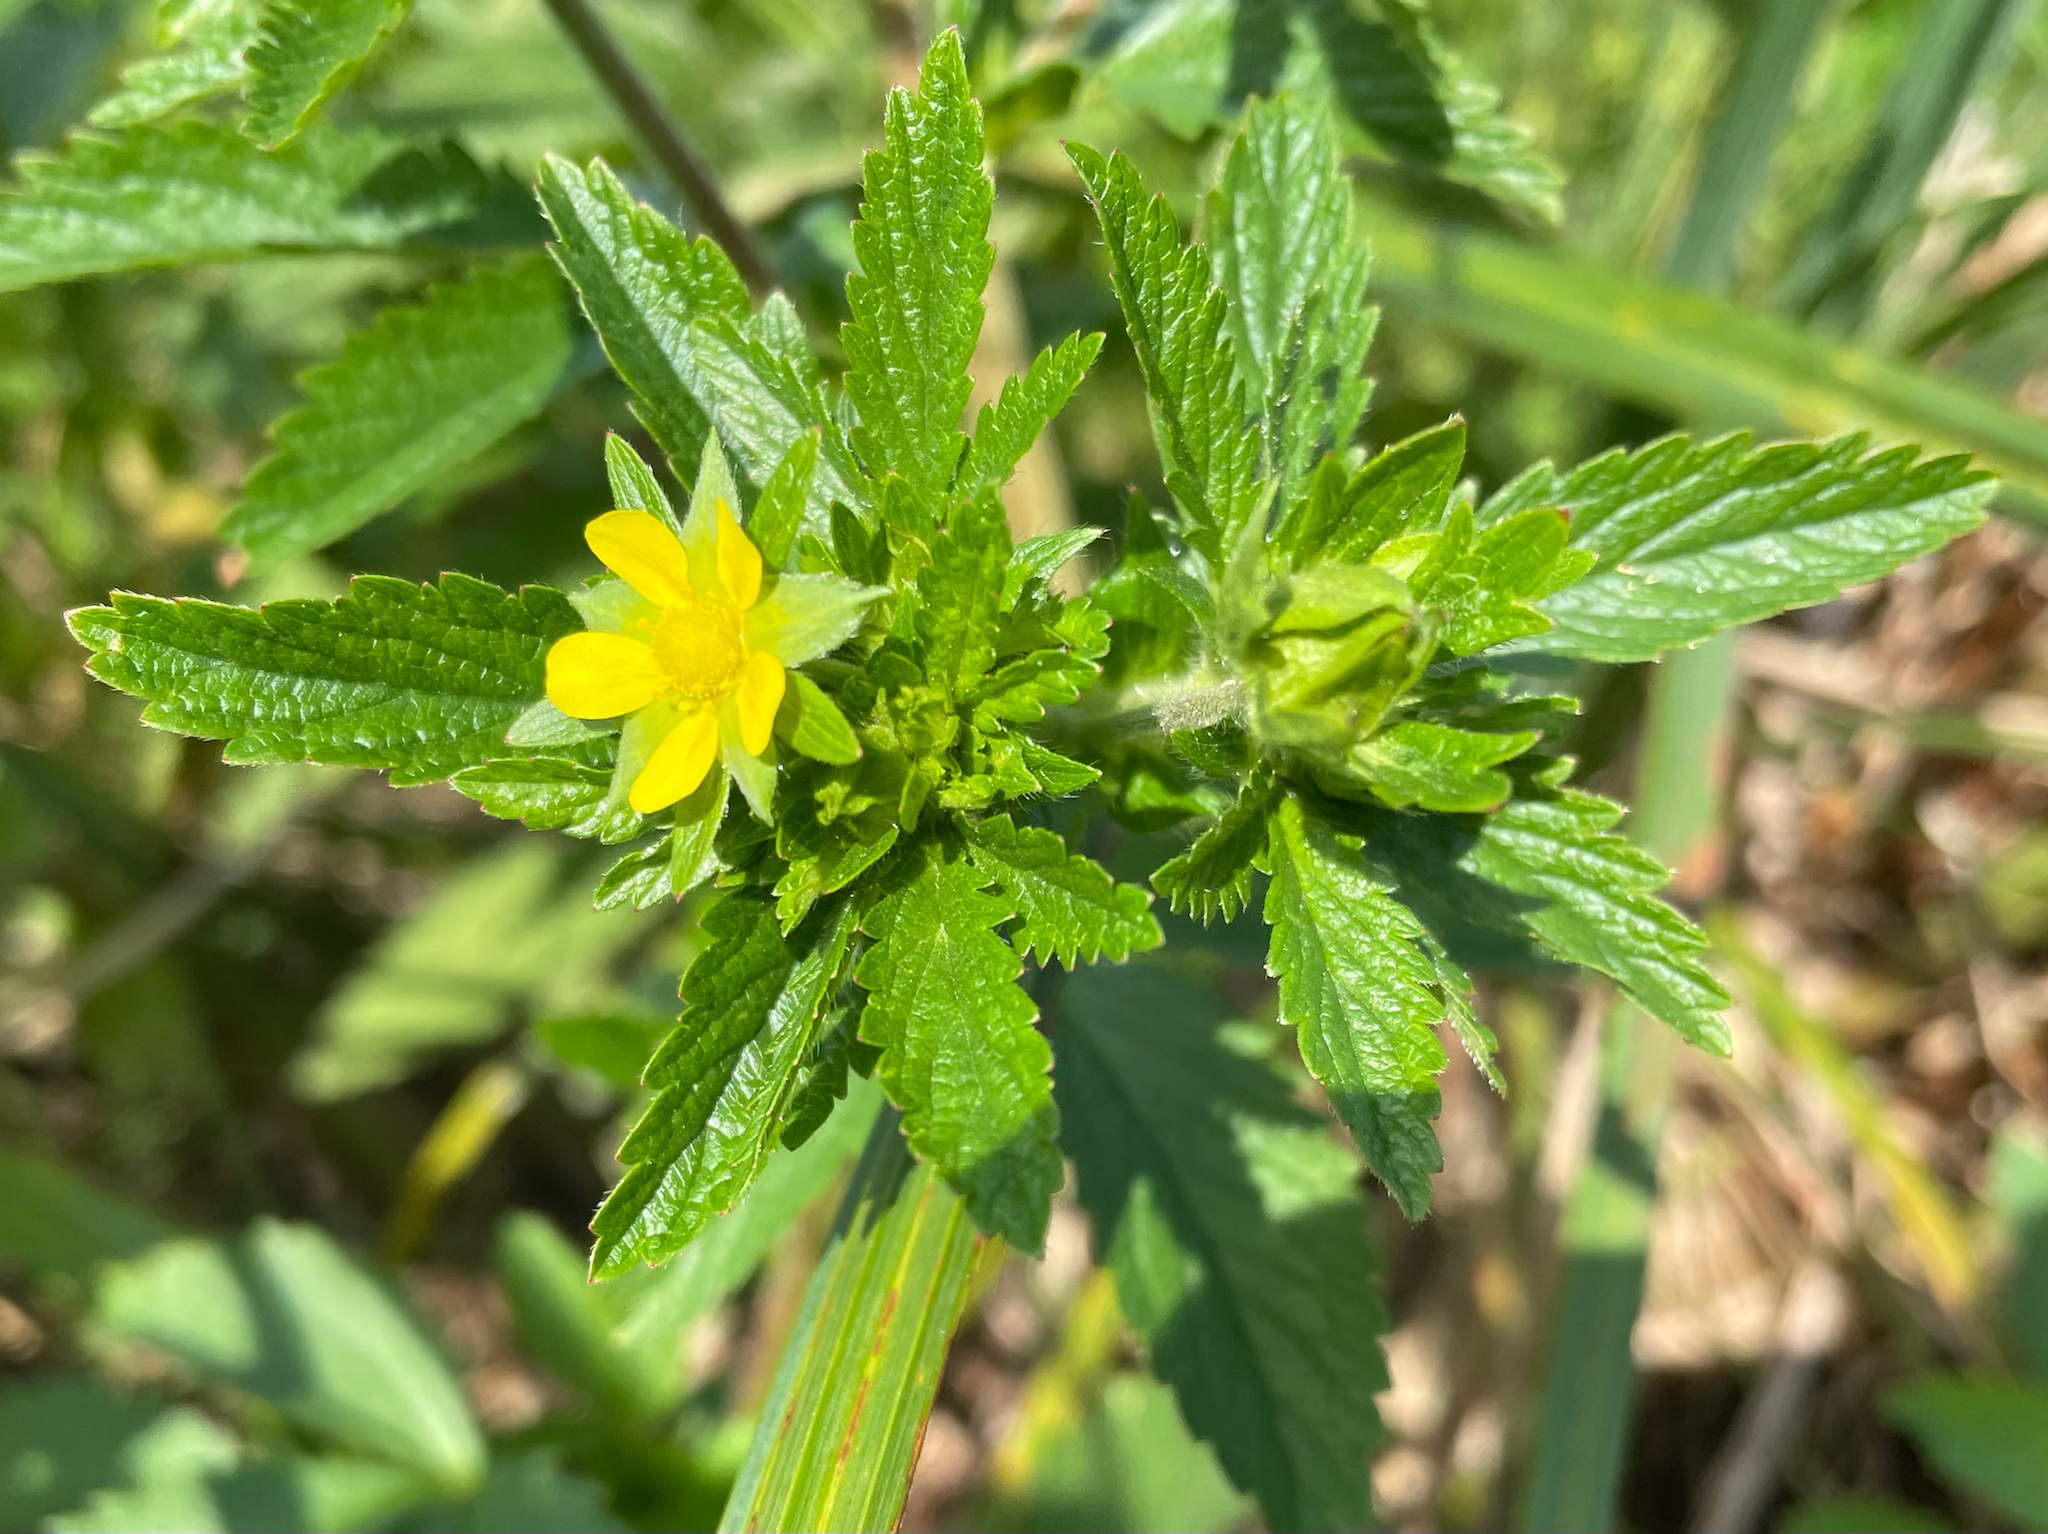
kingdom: Plantae
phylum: Tracheophyta
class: Magnoliopsida
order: Rosales
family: Rosaceae
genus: Potentilla
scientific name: Potentilla norvegica
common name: Ternate-leaved cinquefoil
